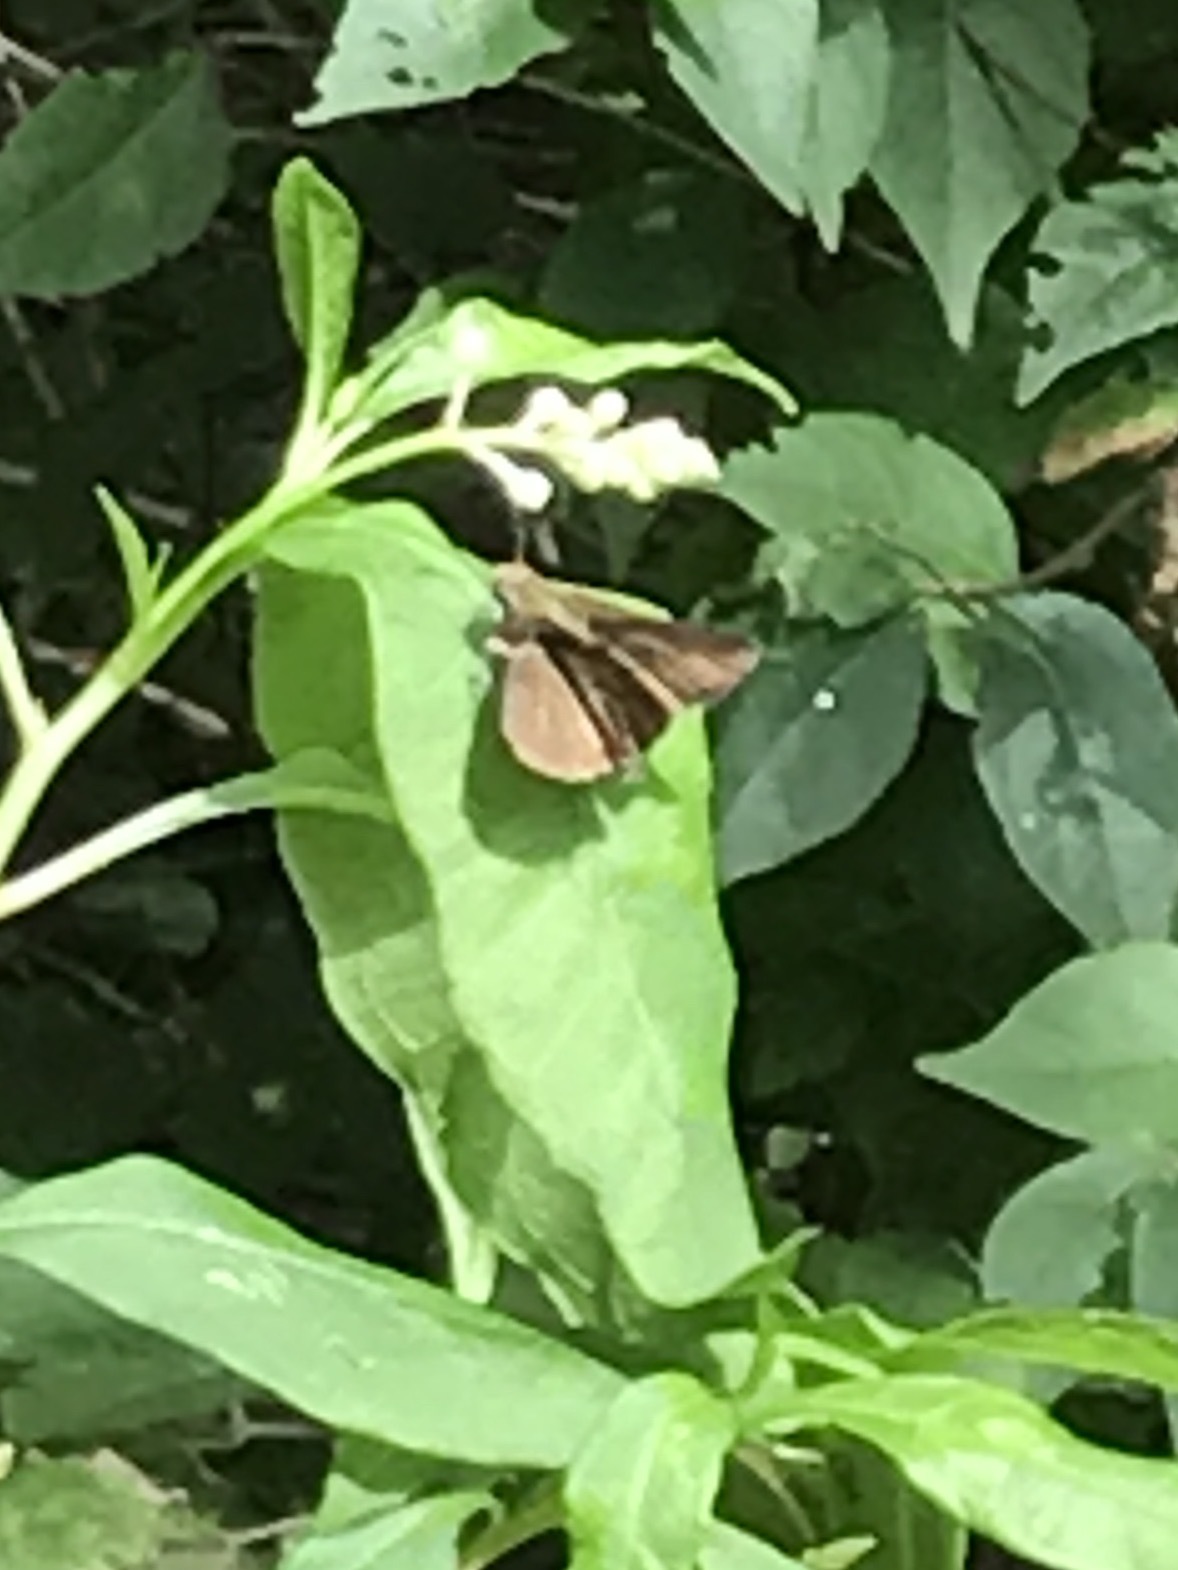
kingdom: Animalia
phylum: Arthropoda
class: Insecta
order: Lepidoptera
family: Hesperiidae
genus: Euphyes
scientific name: Euphyes vestris
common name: Dun skipper
